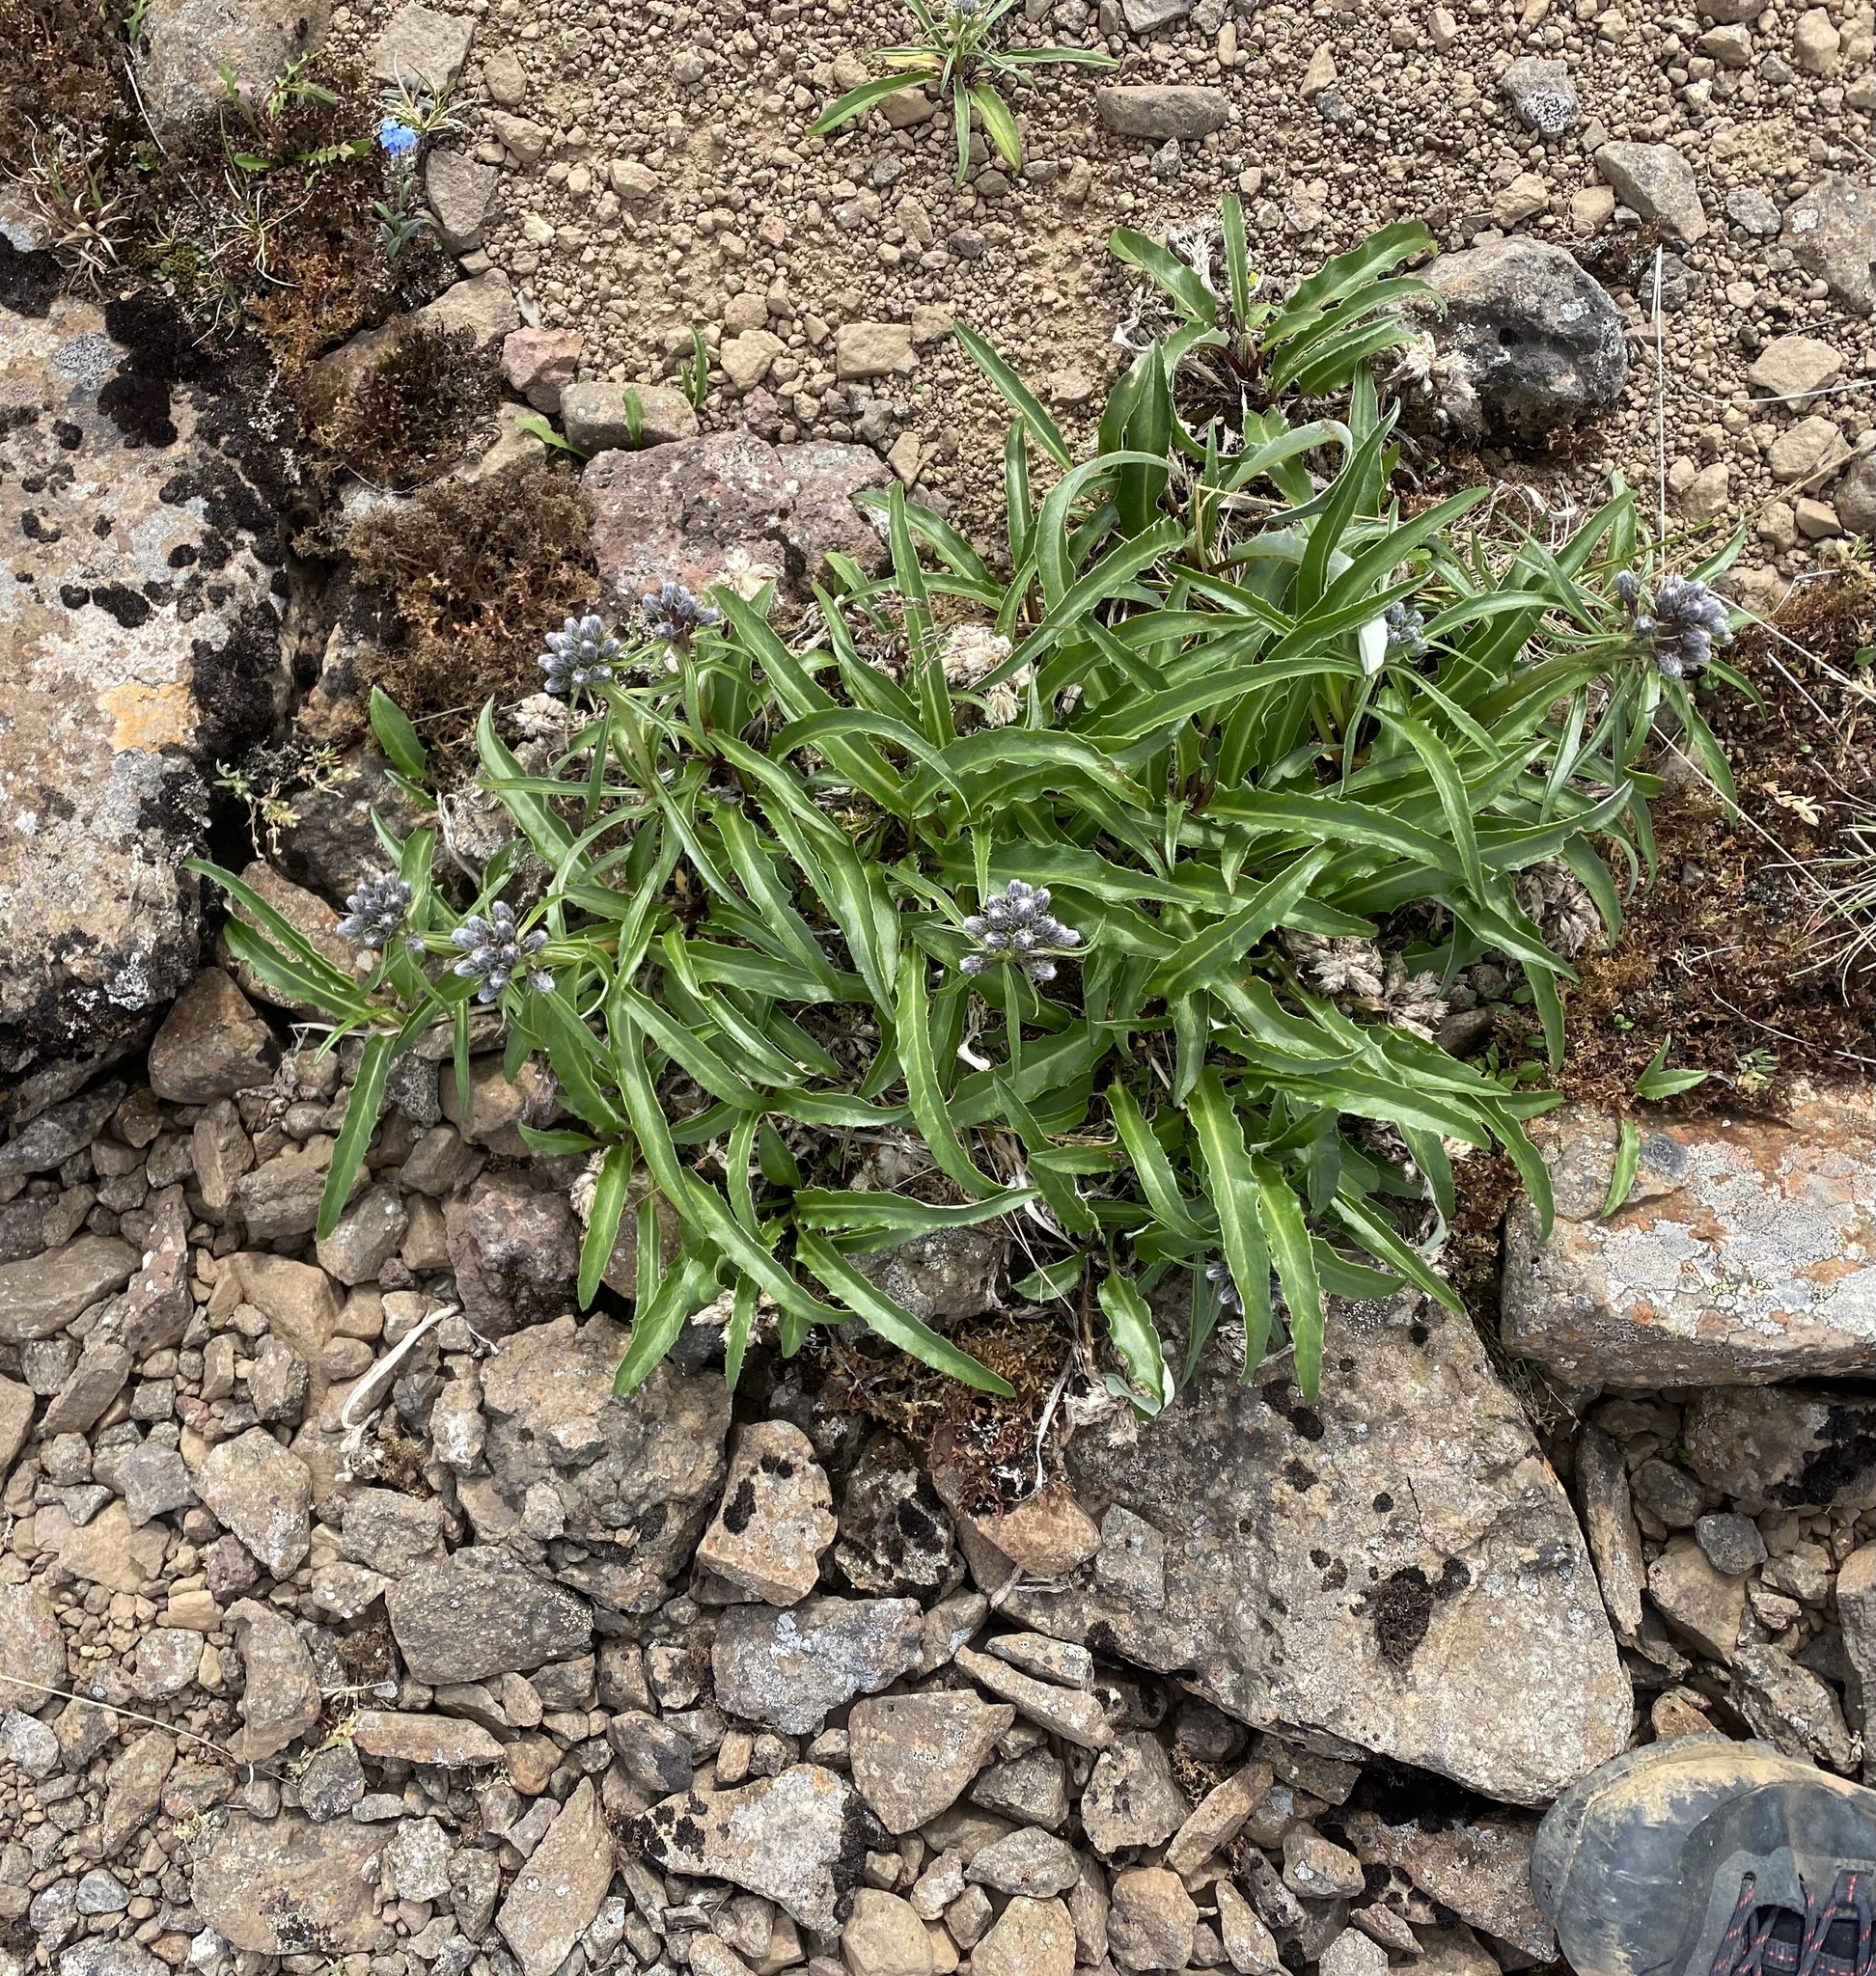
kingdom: Plantae
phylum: Tracheophyta
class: Magnoliopsida
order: Asterales
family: Asteraceae
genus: Saussurea
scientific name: Saussurea tilesii
